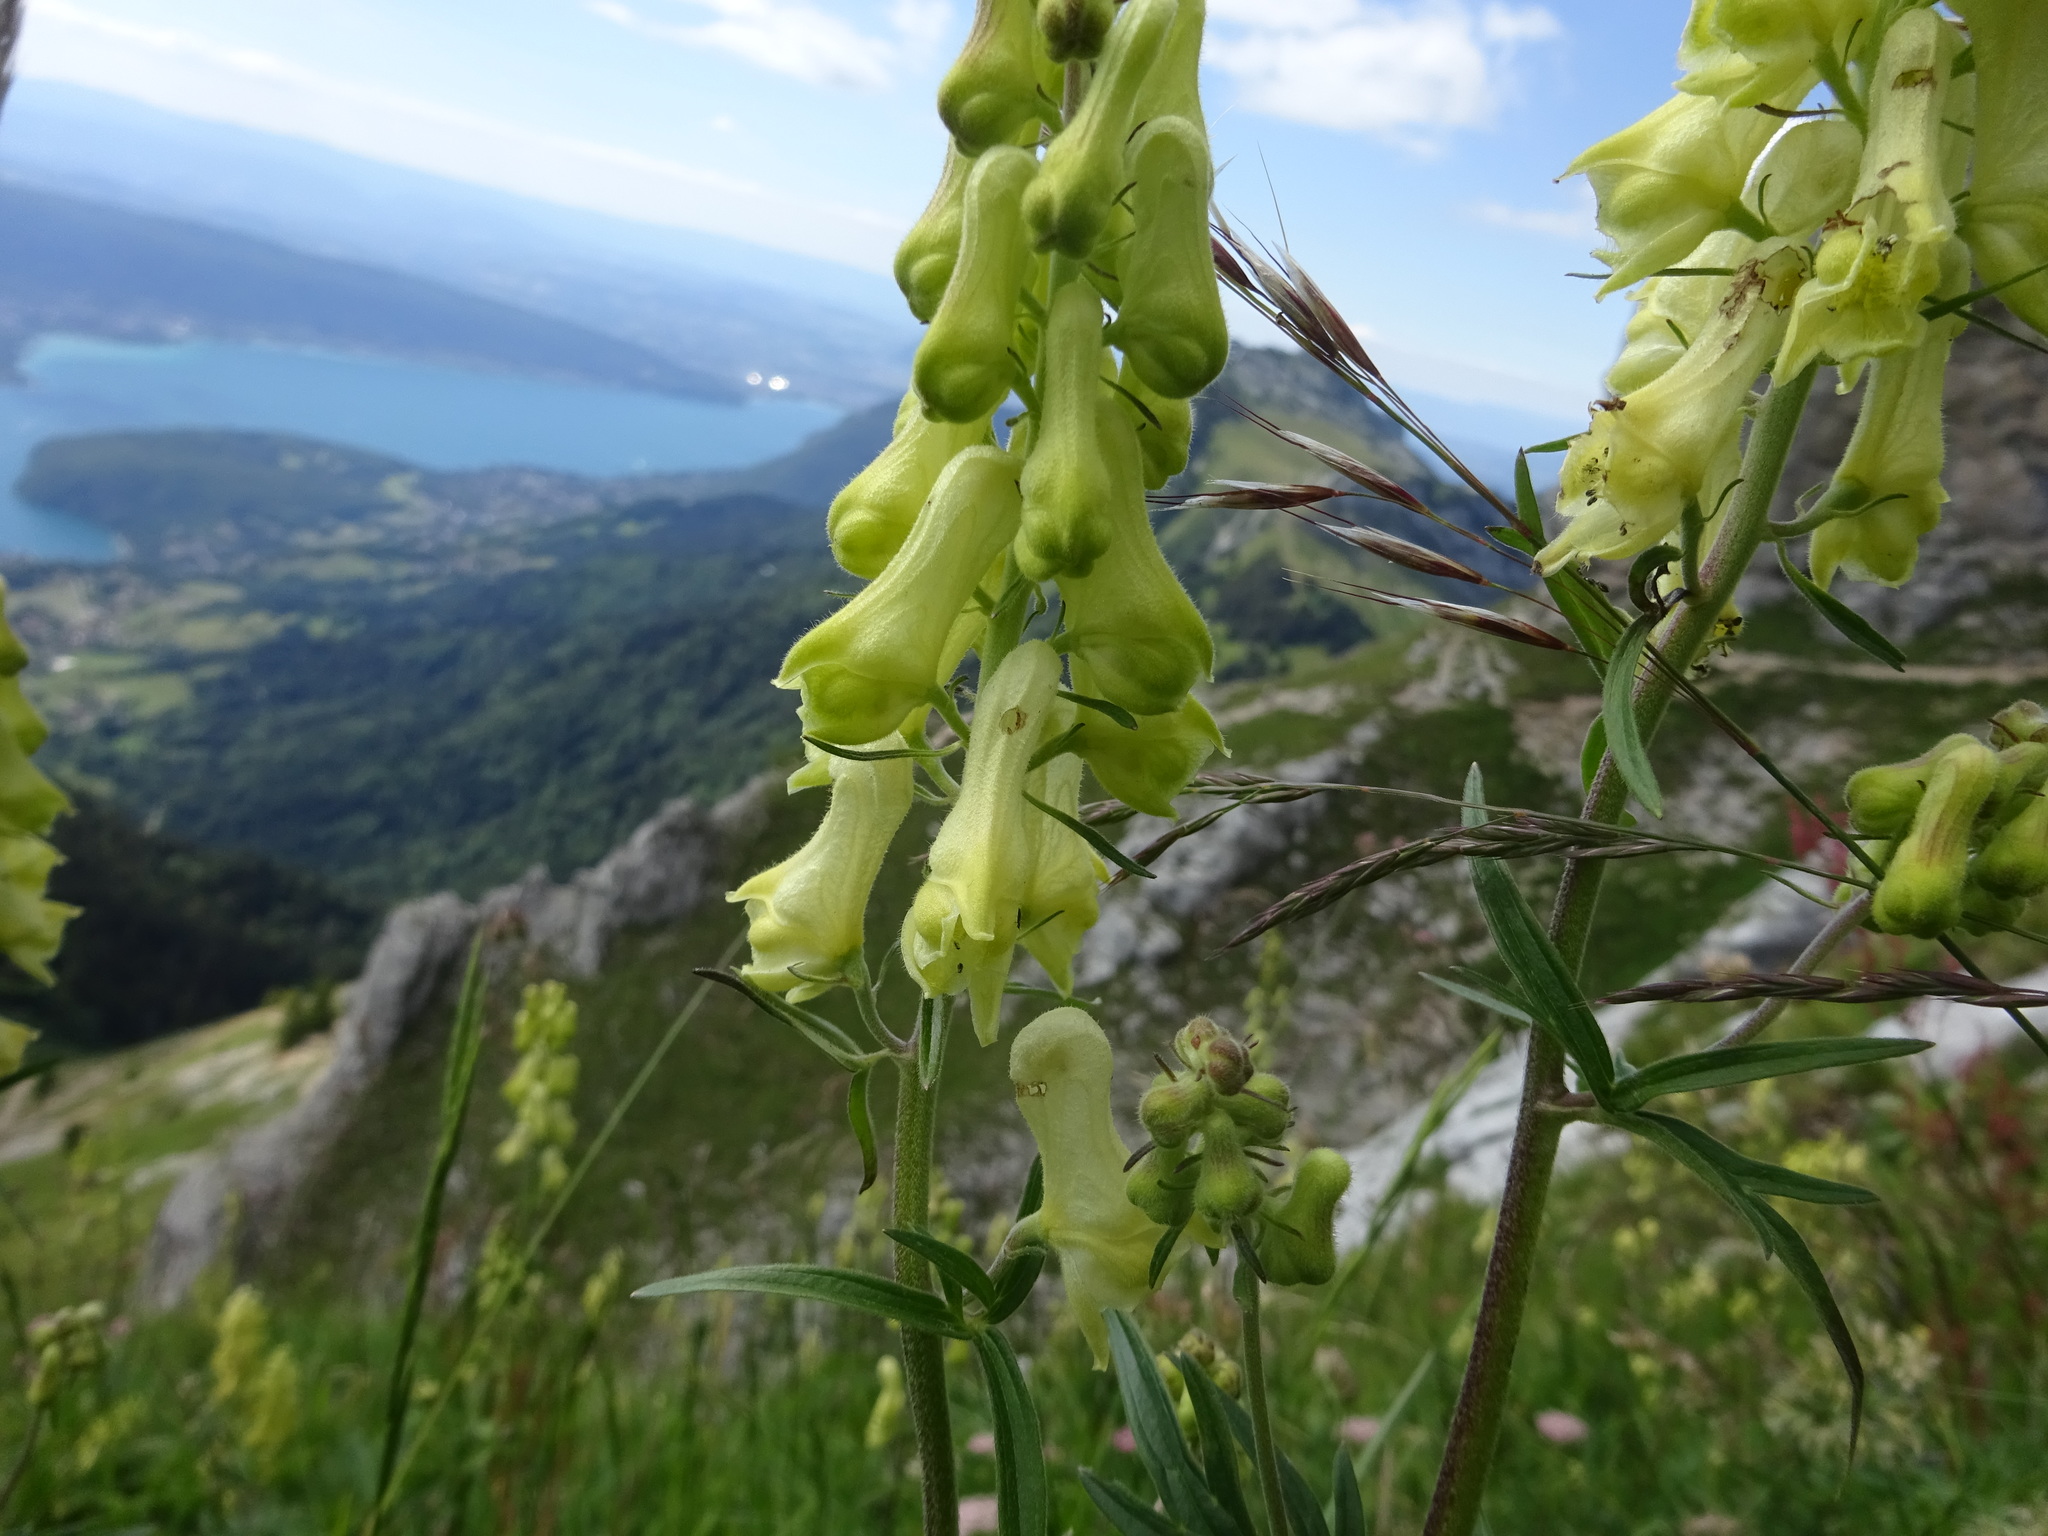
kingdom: Plantae
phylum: Tracheophyta
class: Magnoliopsida
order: Ranunculales
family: Ranunculaceae
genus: Aconitum
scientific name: Aconitum lycoctonum
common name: Wolf's-bane
